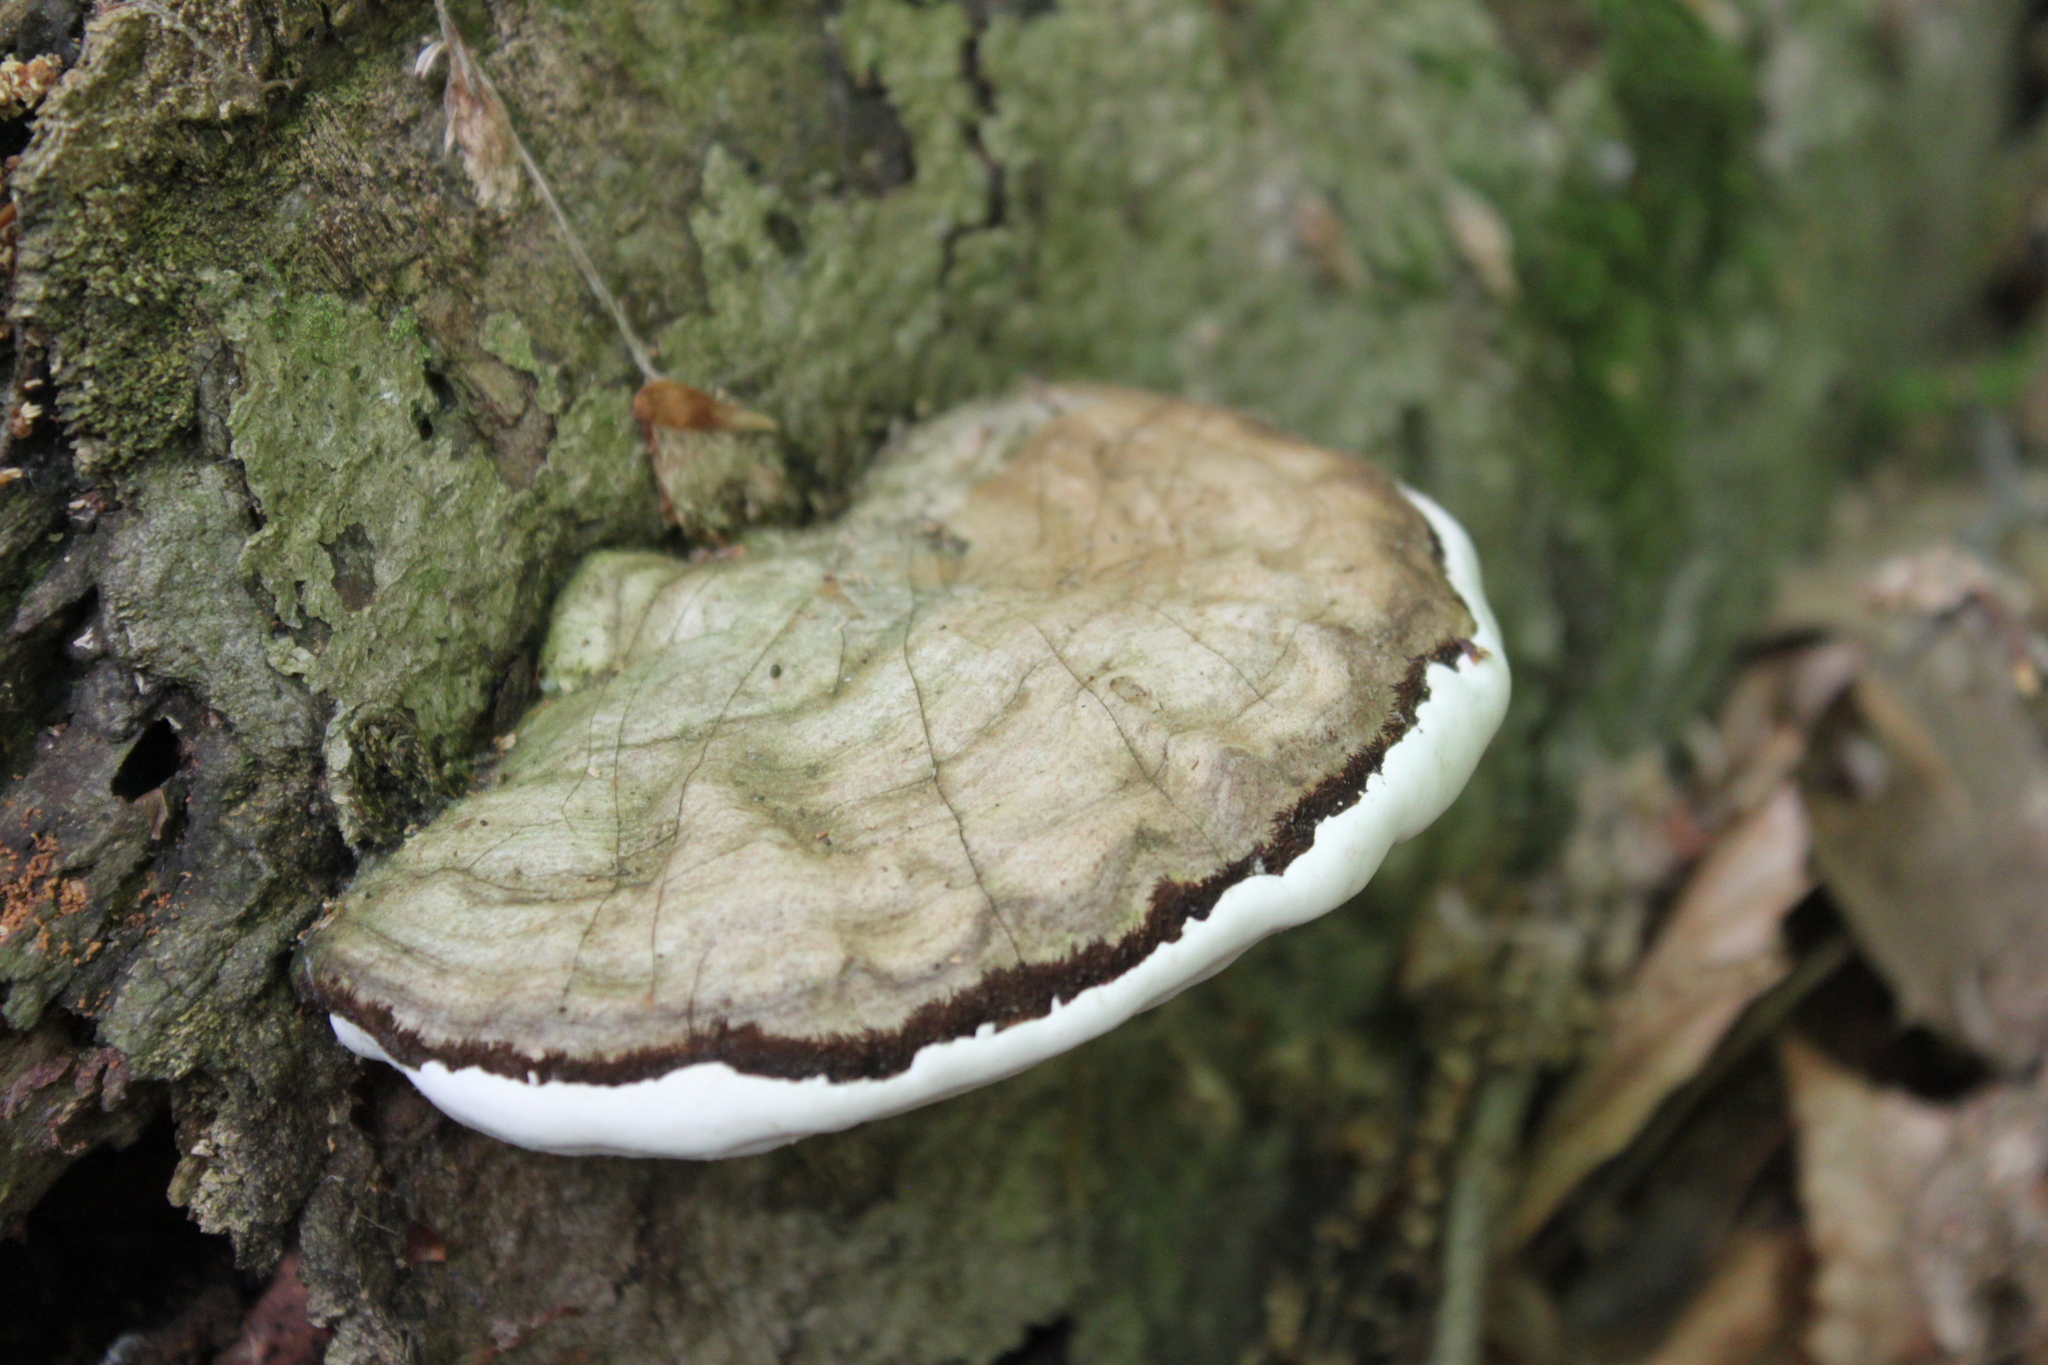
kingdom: Fungi
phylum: Basidiomycota
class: Agaricomycetes
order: Polyporales
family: Polyporaceae
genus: Ganoderma
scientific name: Ganoderma applanatum
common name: Artist's bracket
